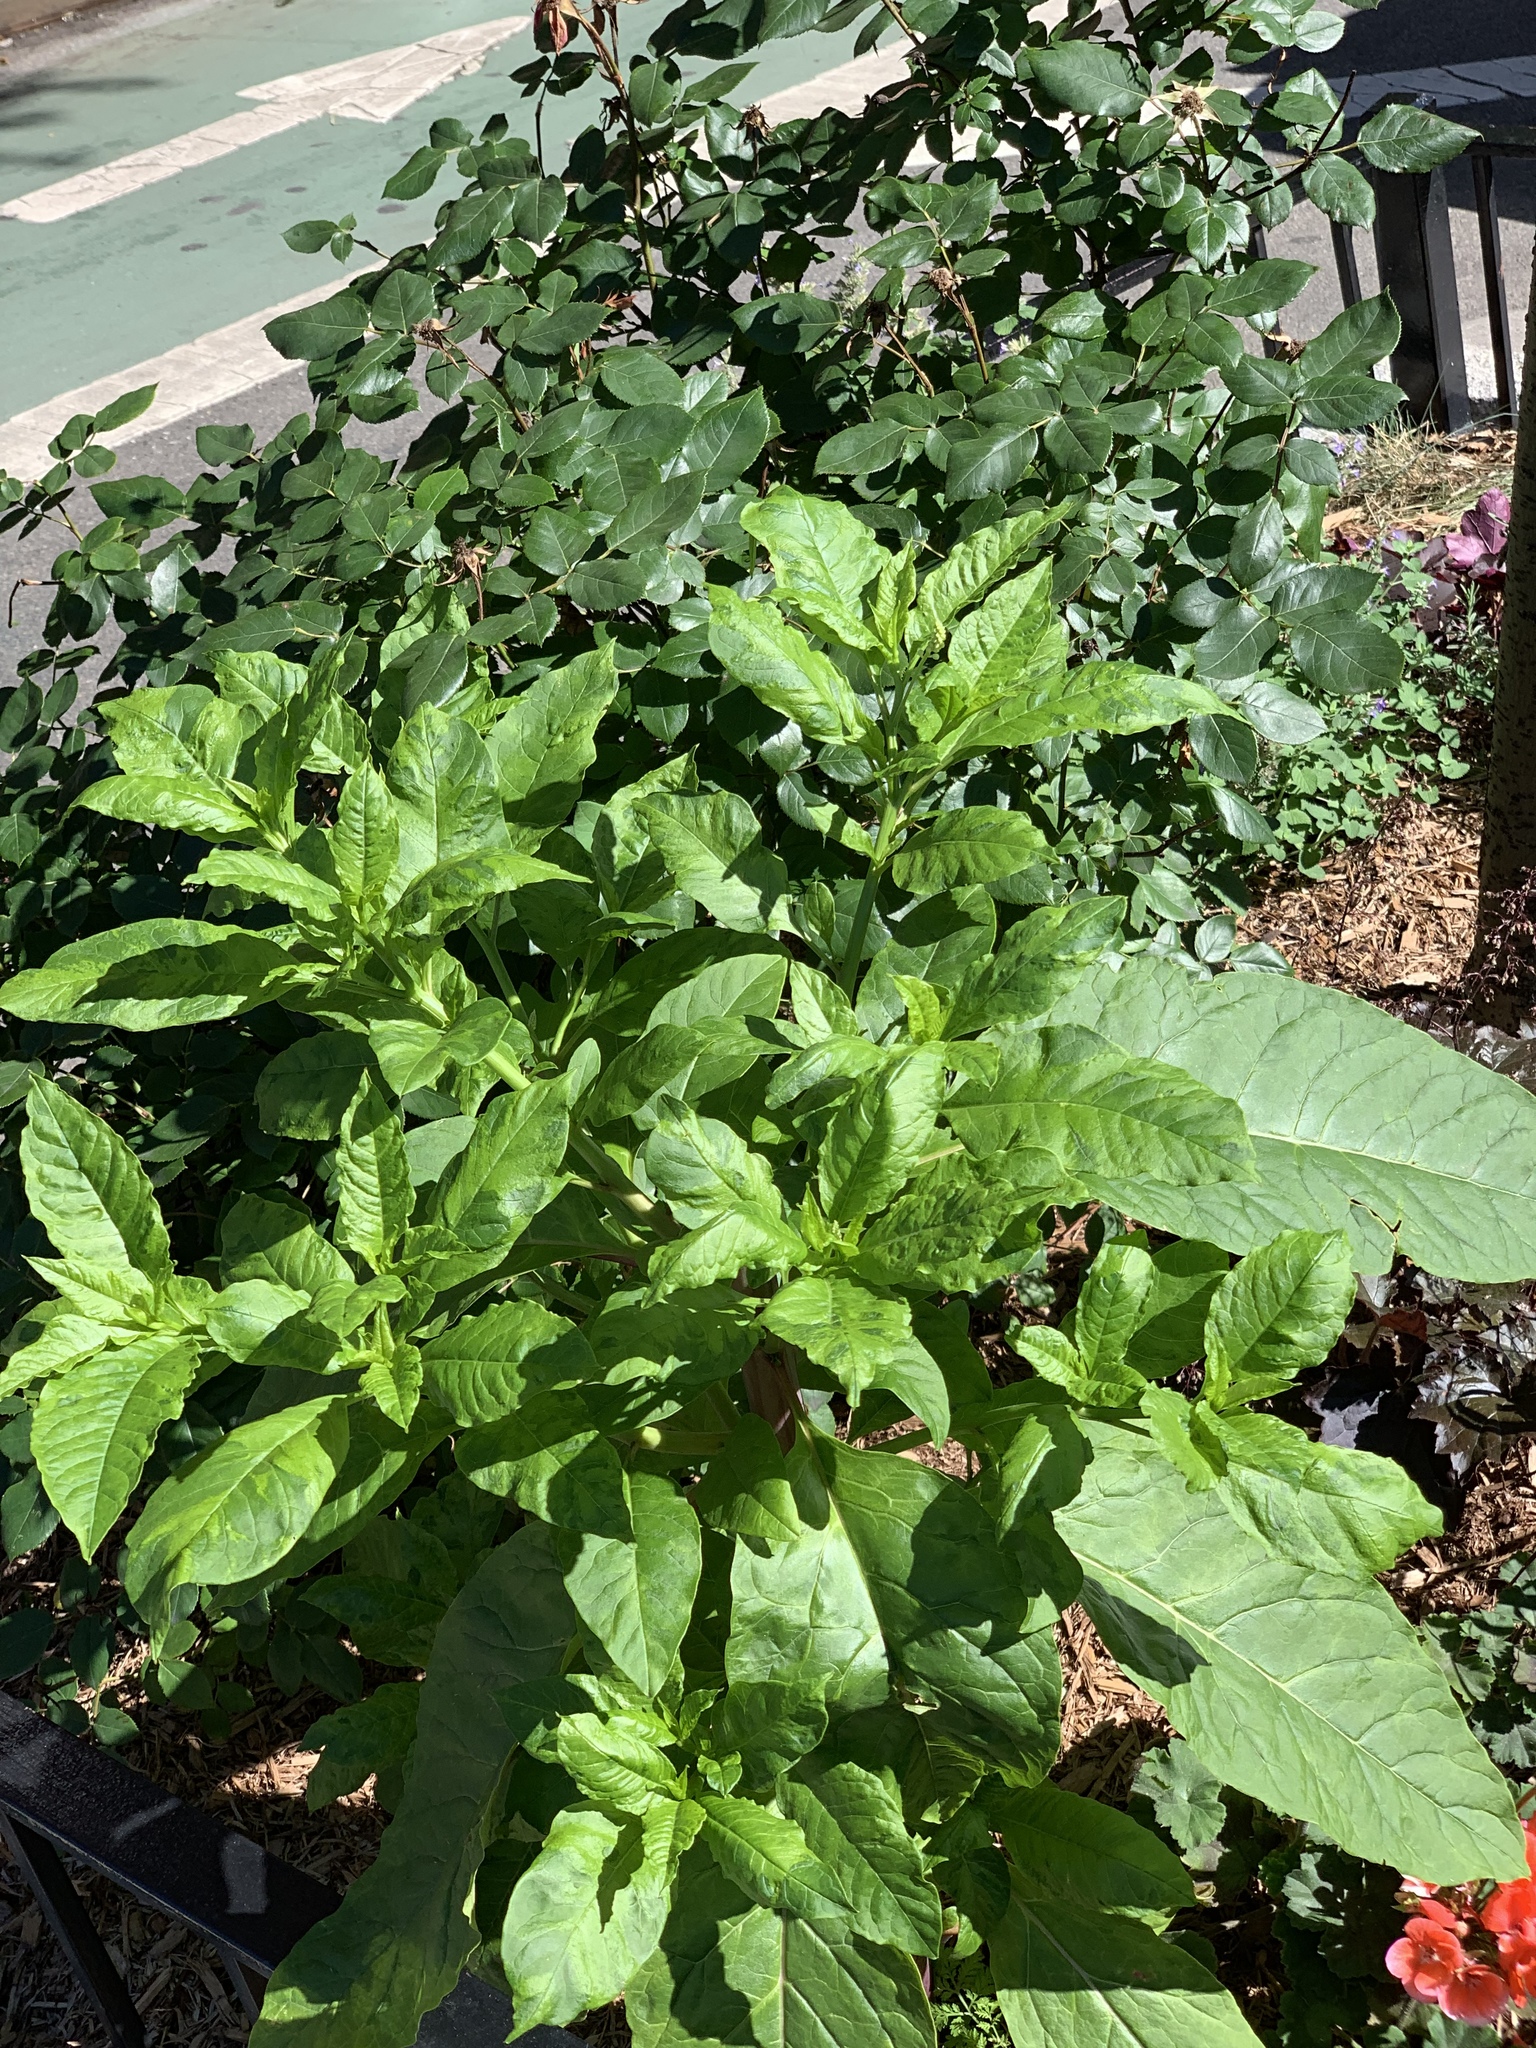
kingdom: Plantae
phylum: Tracheophyta
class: Magnoliopsida
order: Caryophyllales
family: Phytolaccaceae
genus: Phytolacca
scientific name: Phytolacca americana
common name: American pokeweed
